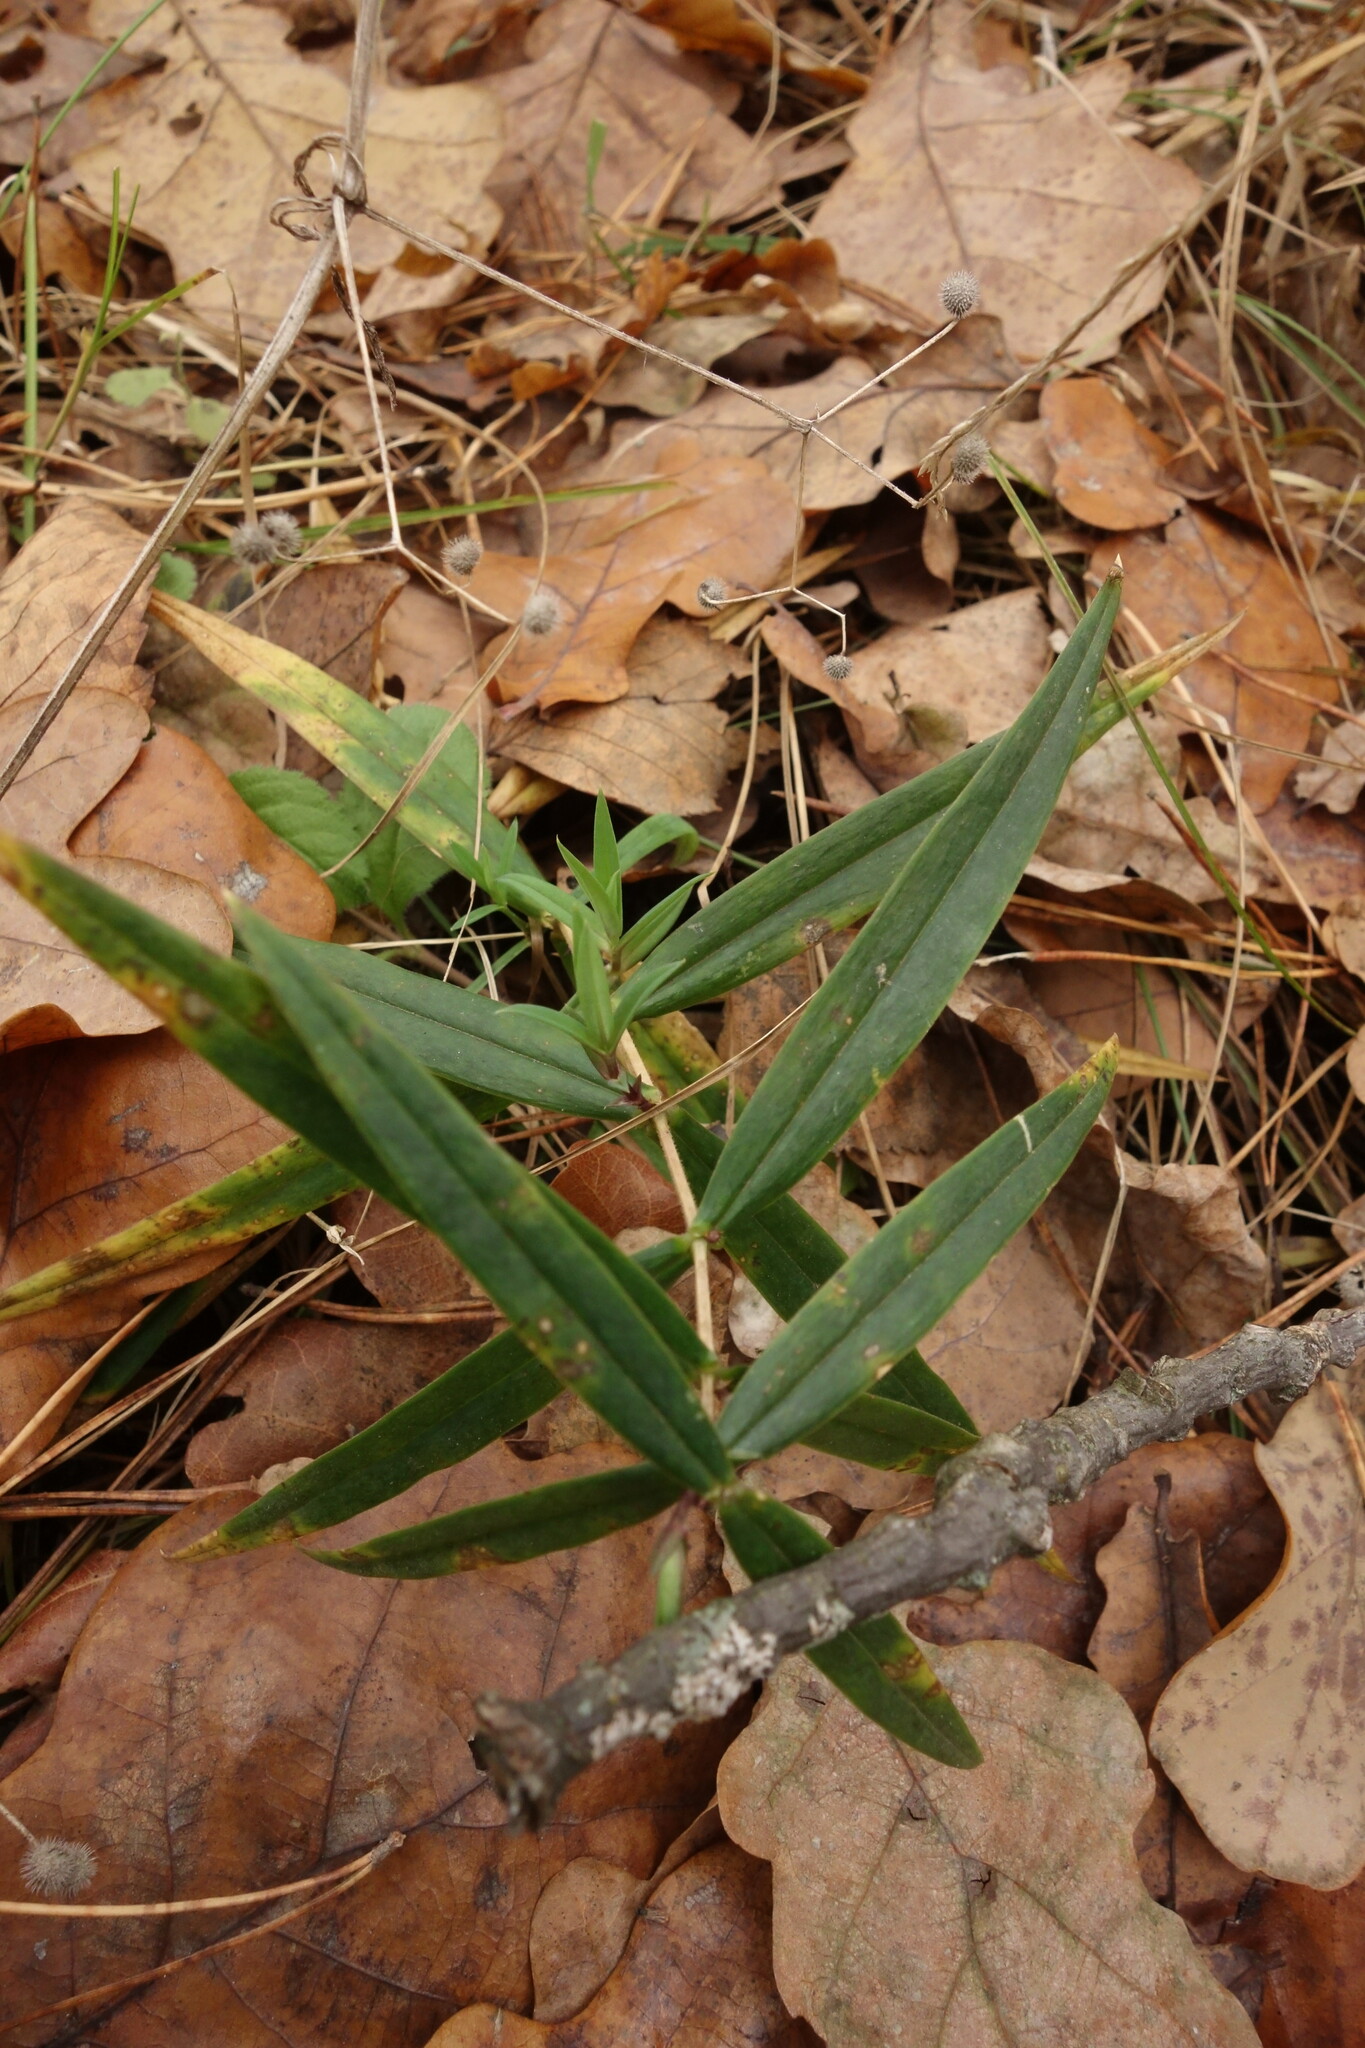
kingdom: Plantae
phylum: Tracheophyta
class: Magnoliopsida
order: Caryophyllales
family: Caryophyllaceae
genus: Rabelera
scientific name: Rabelera holostea
